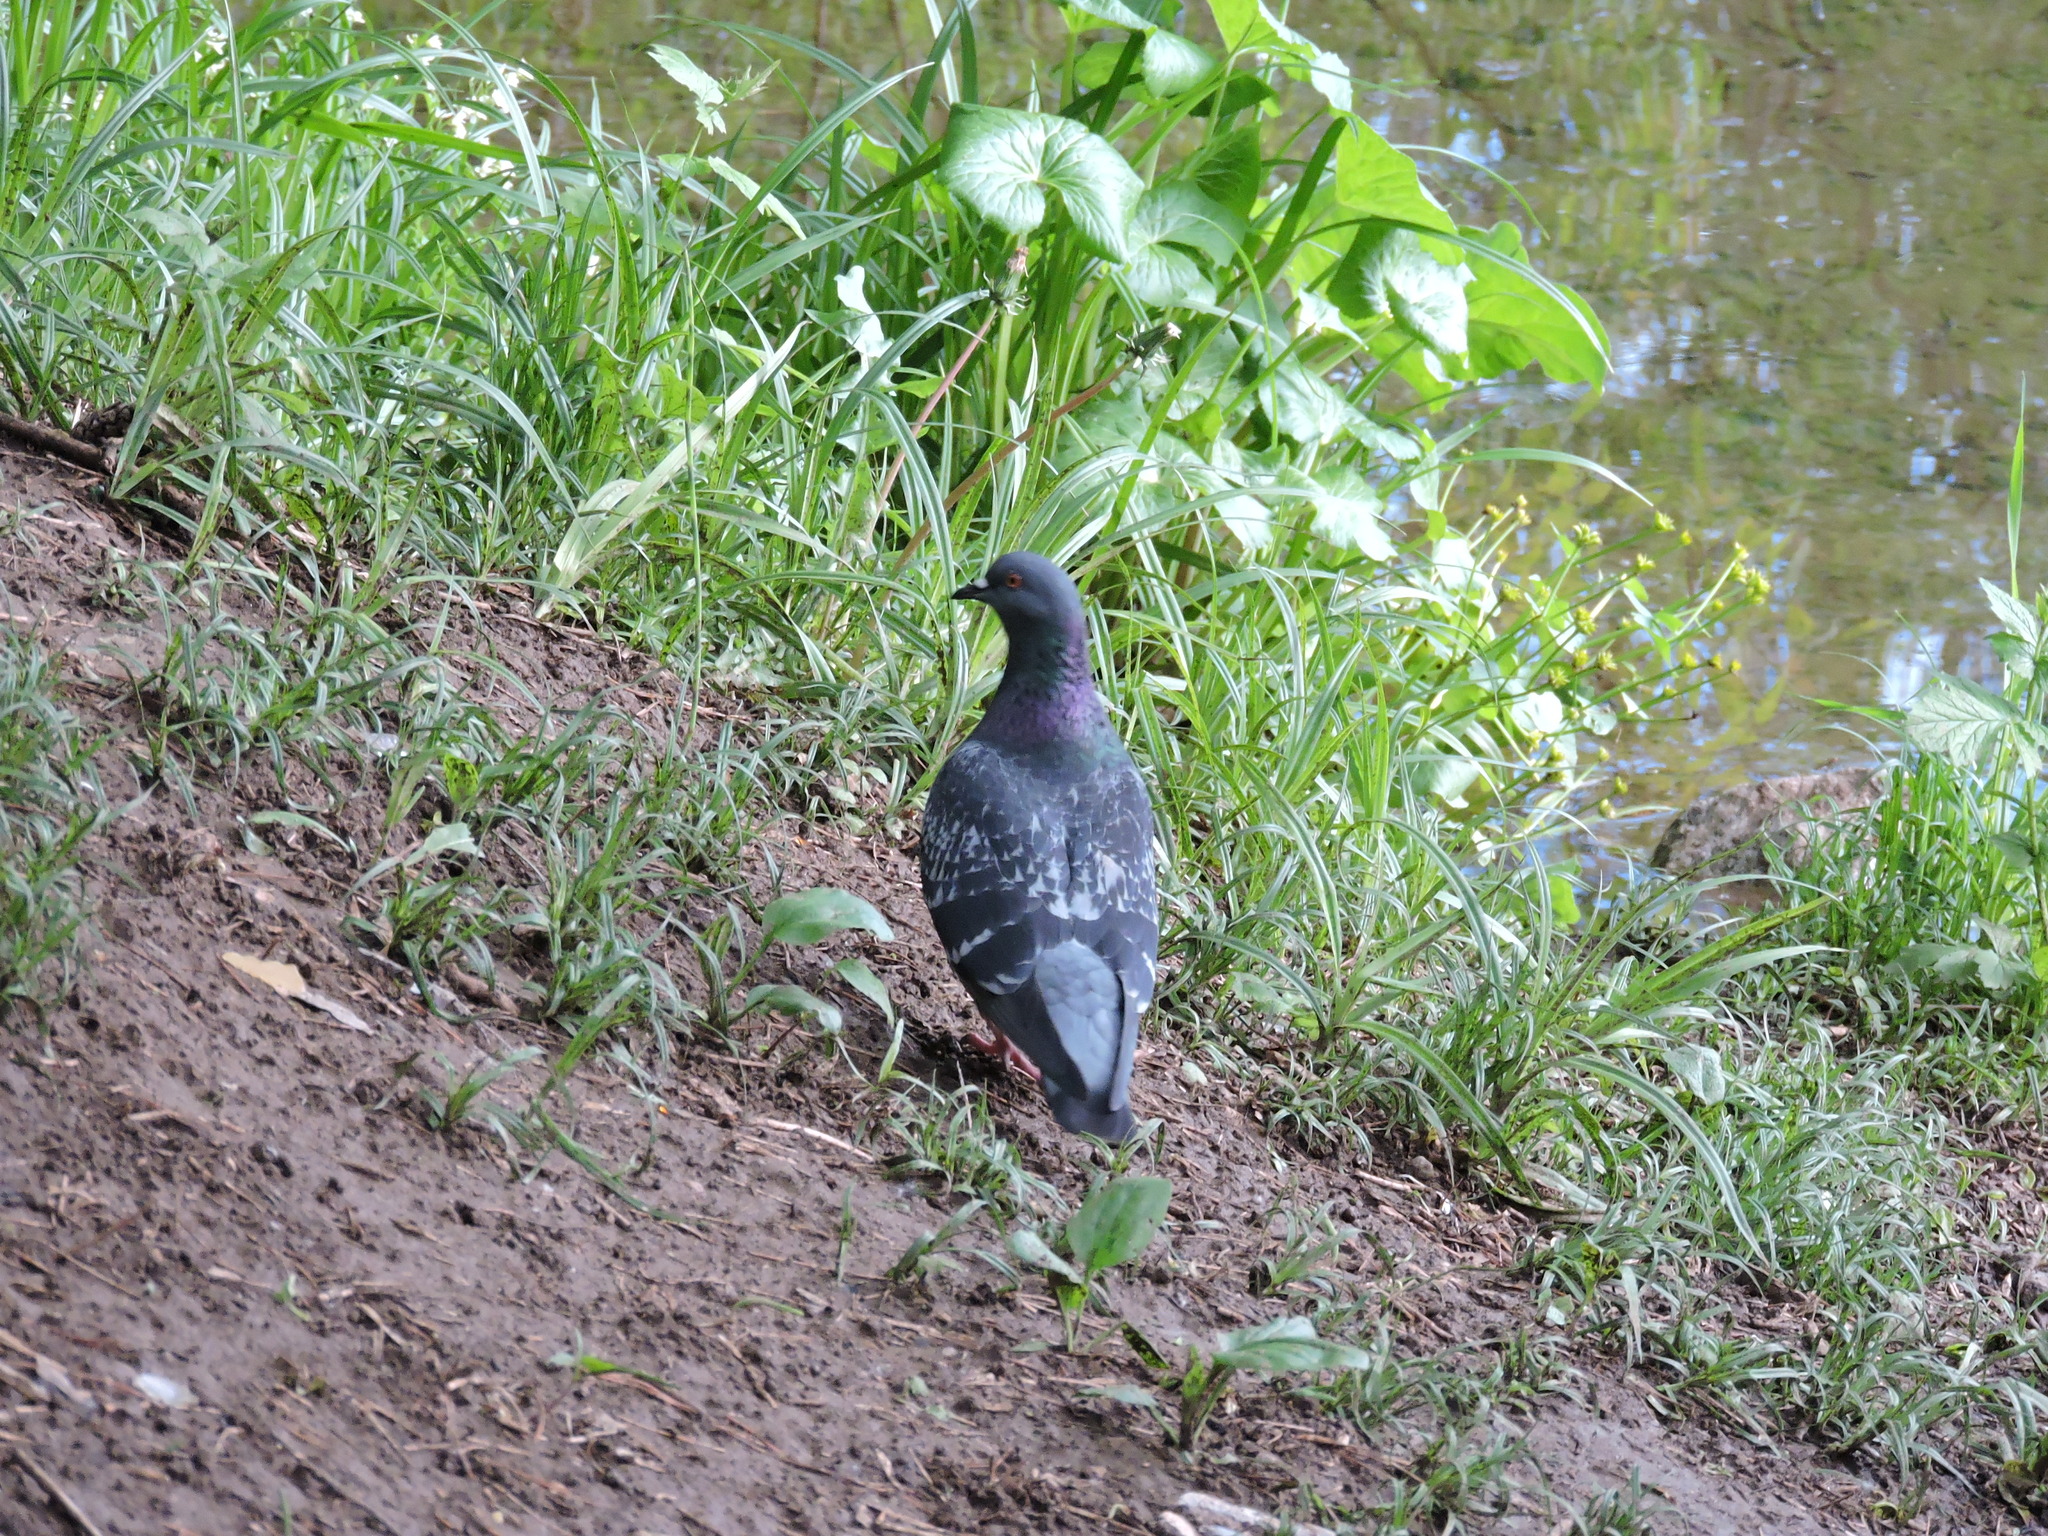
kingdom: Animalia
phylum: Chordata
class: Aves
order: Columbiformes
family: Columbidae
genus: Columba
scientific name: Columba livia
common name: Rock pigeon
